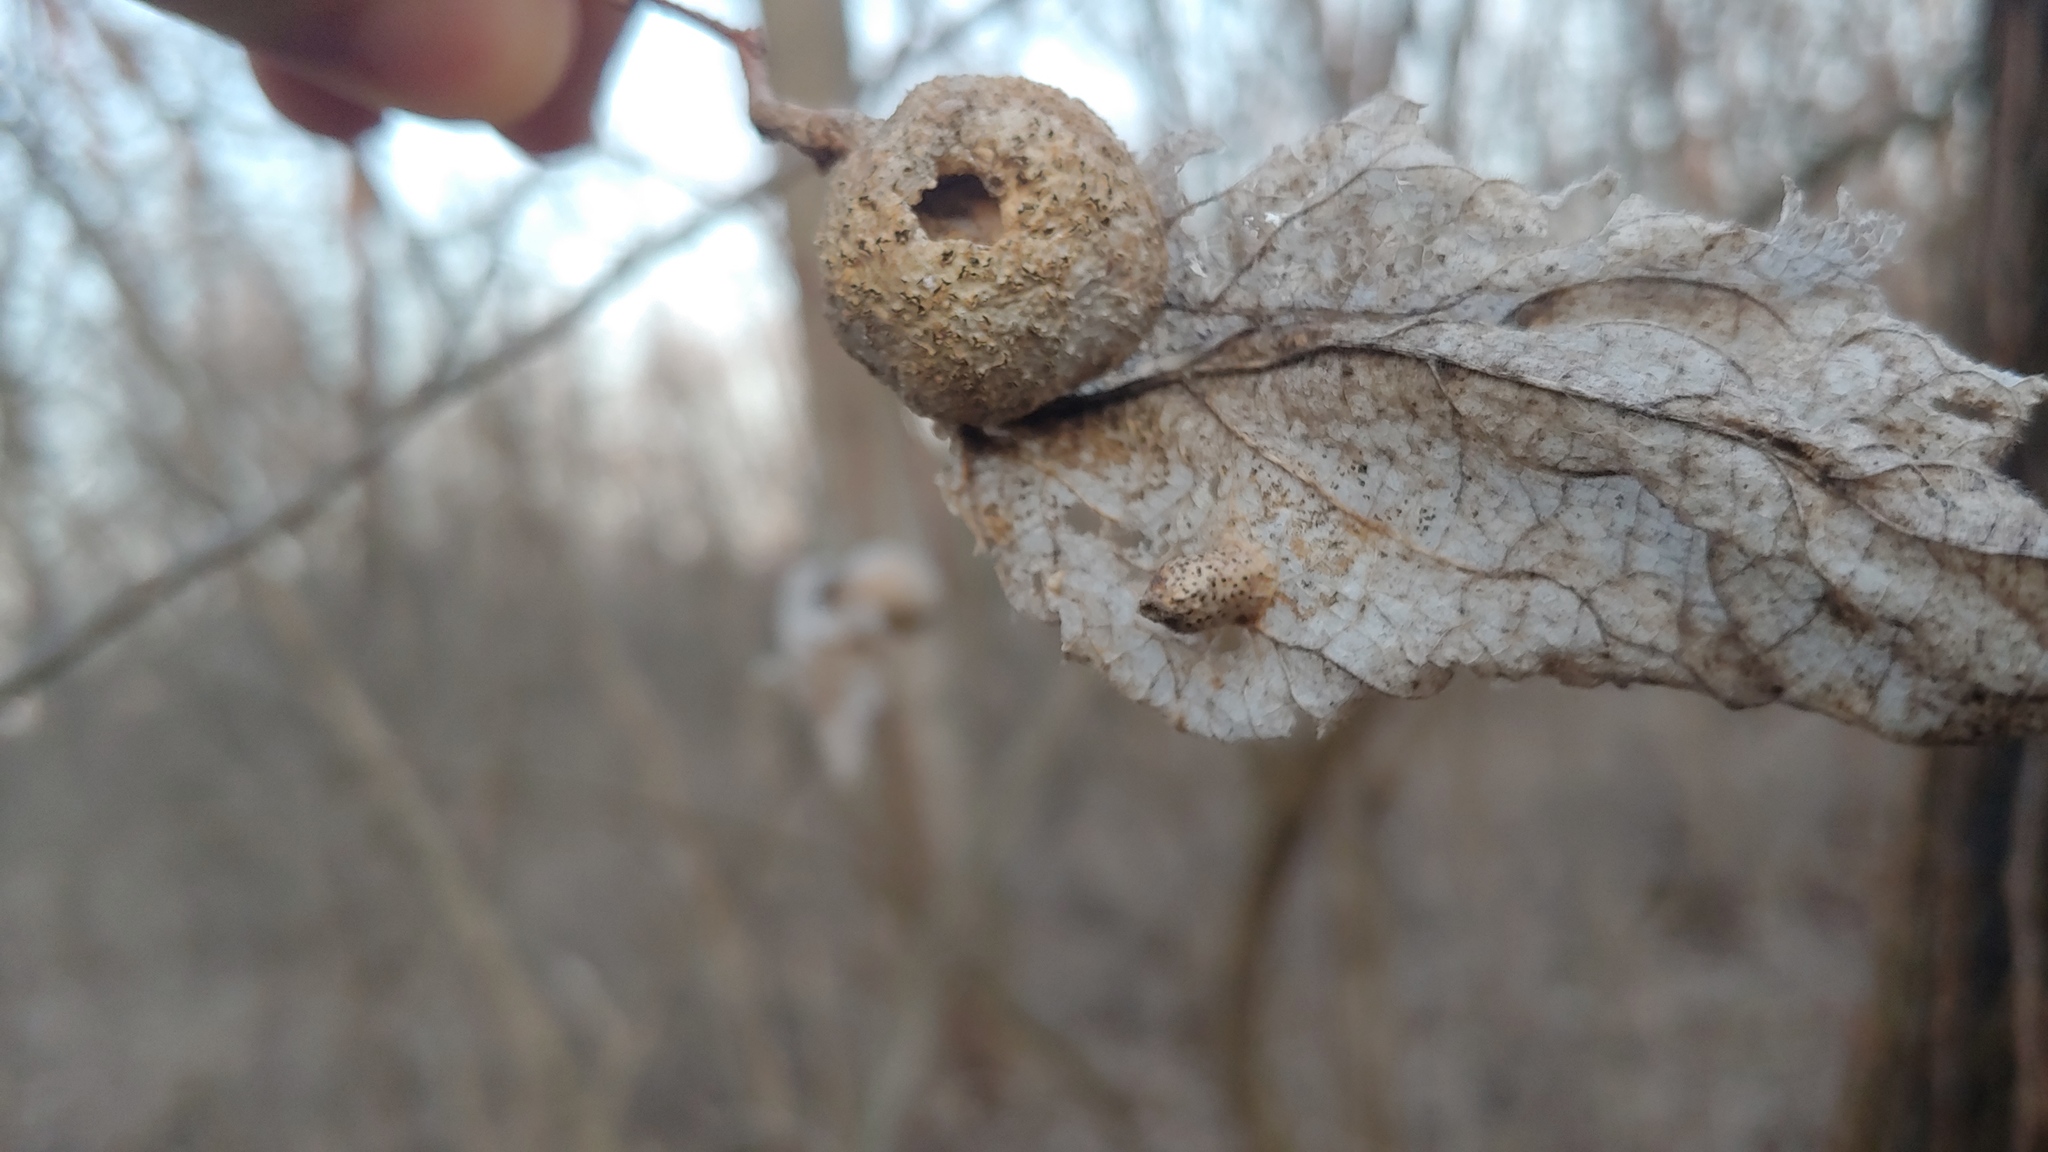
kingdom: Animalia
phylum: Arthropoda
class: Insecta
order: Hemiptera
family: Aphalaridae
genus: Pachypsylla
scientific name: Pachypsylla celtidismamma
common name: Hackberry nipplegall psyllid
